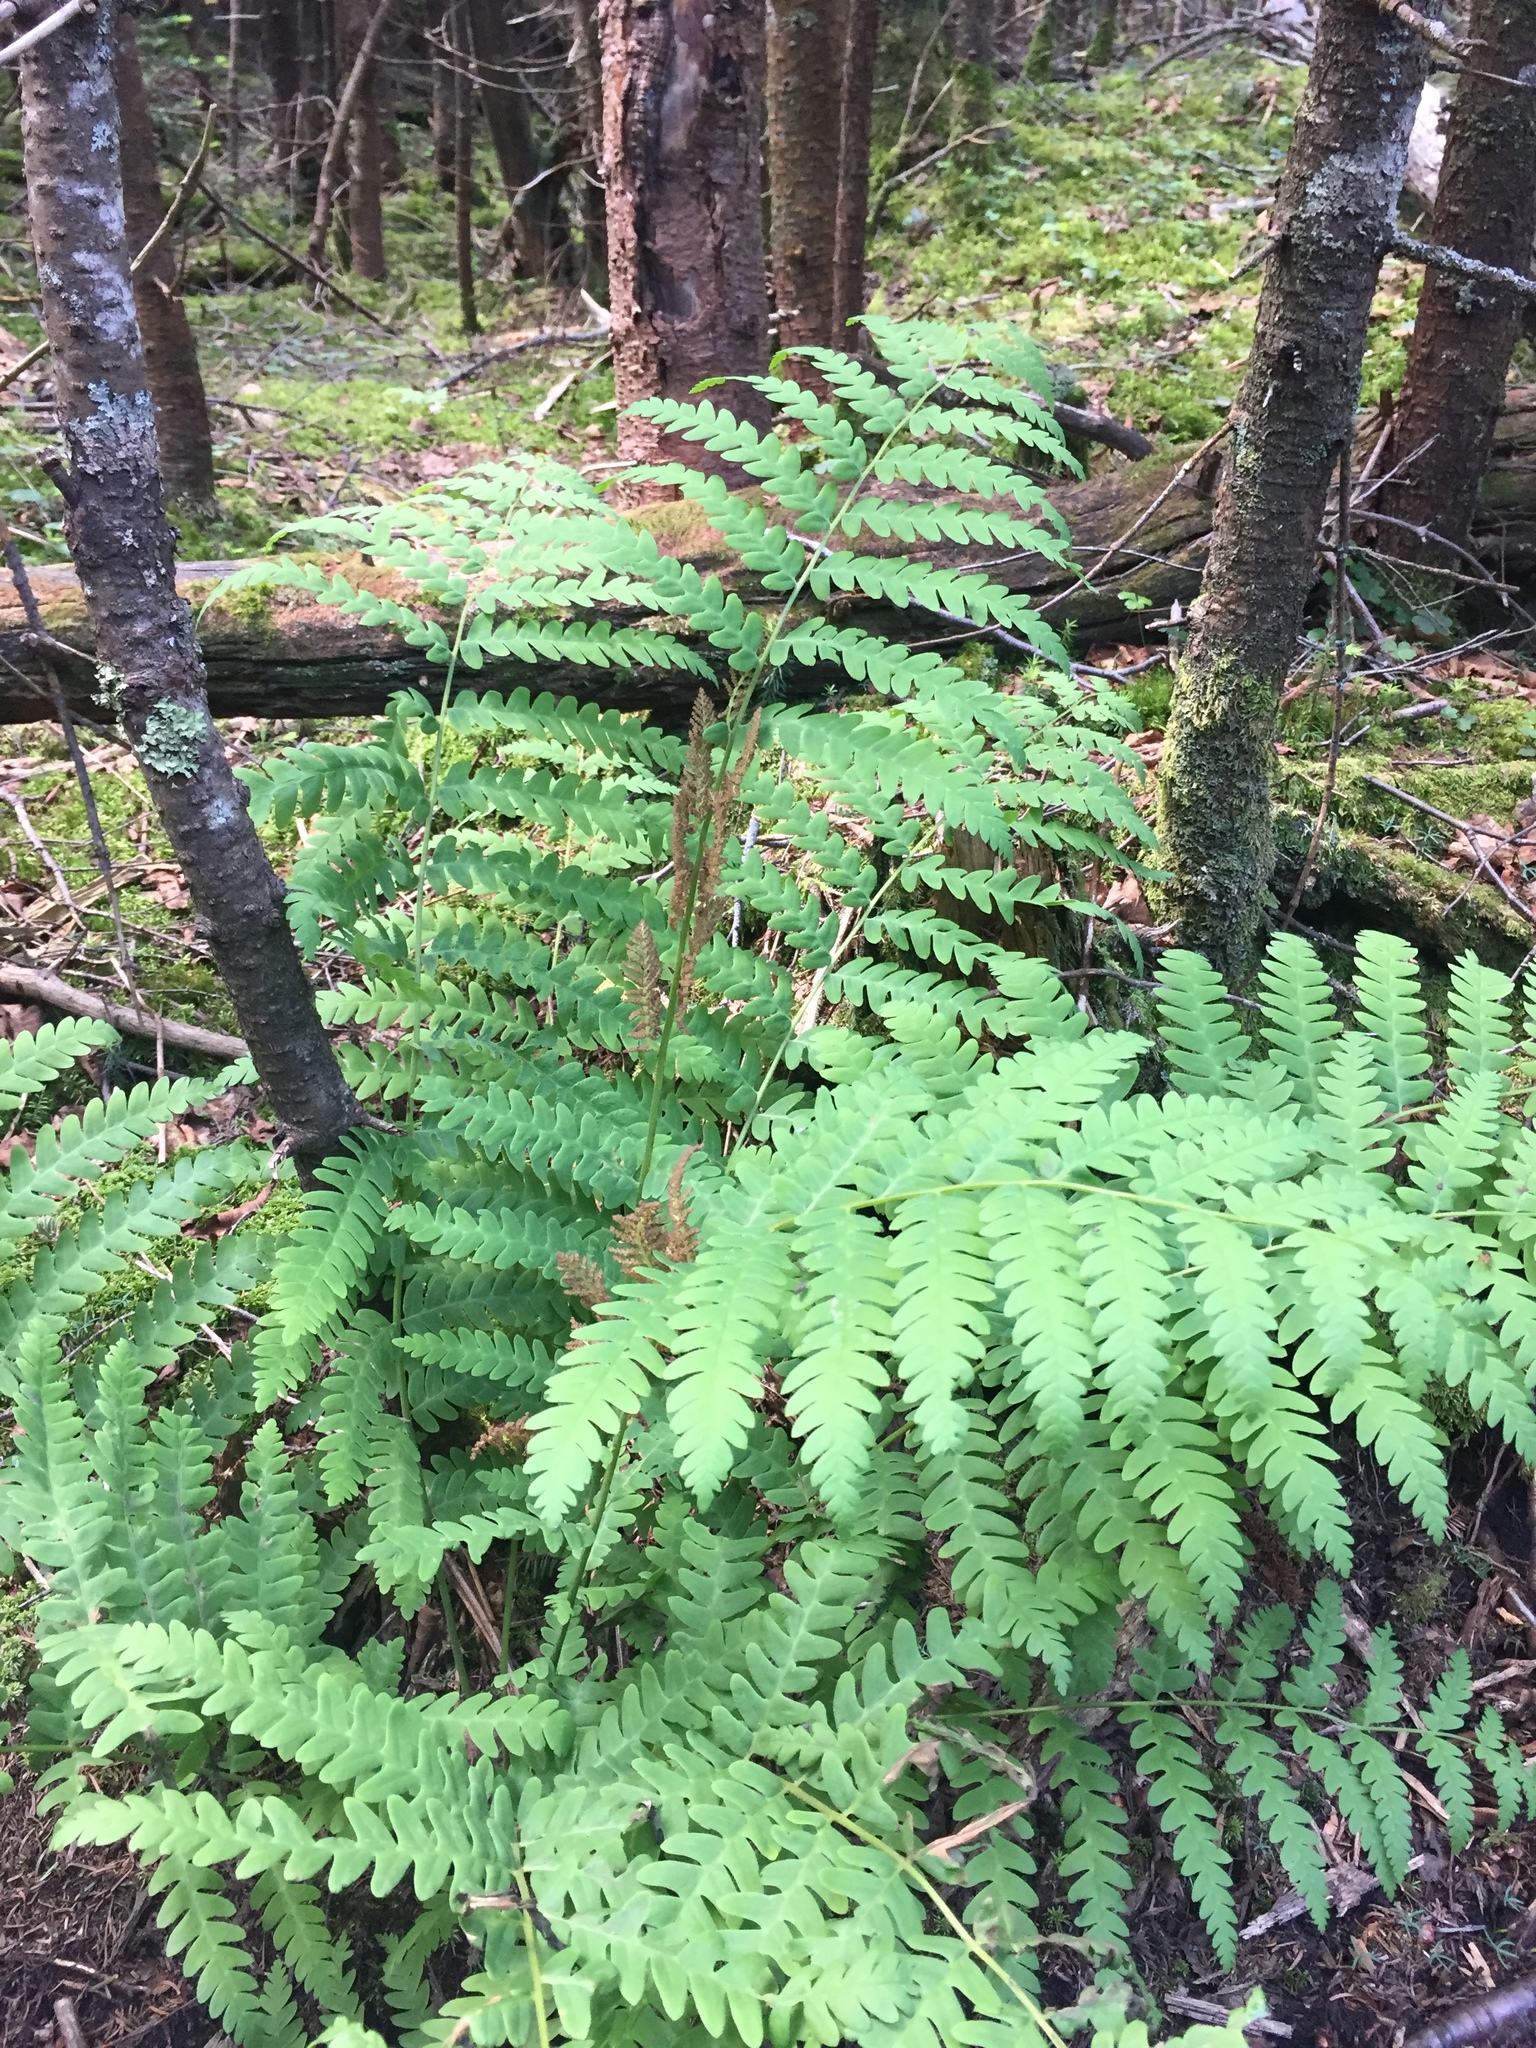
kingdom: Plantae
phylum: Tracheophyta
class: Polypodiopsida
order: Osmundales
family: Osmundaceae
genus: Claytosmunda
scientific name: Claytosmunda claytoniana
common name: Clayton's fern
